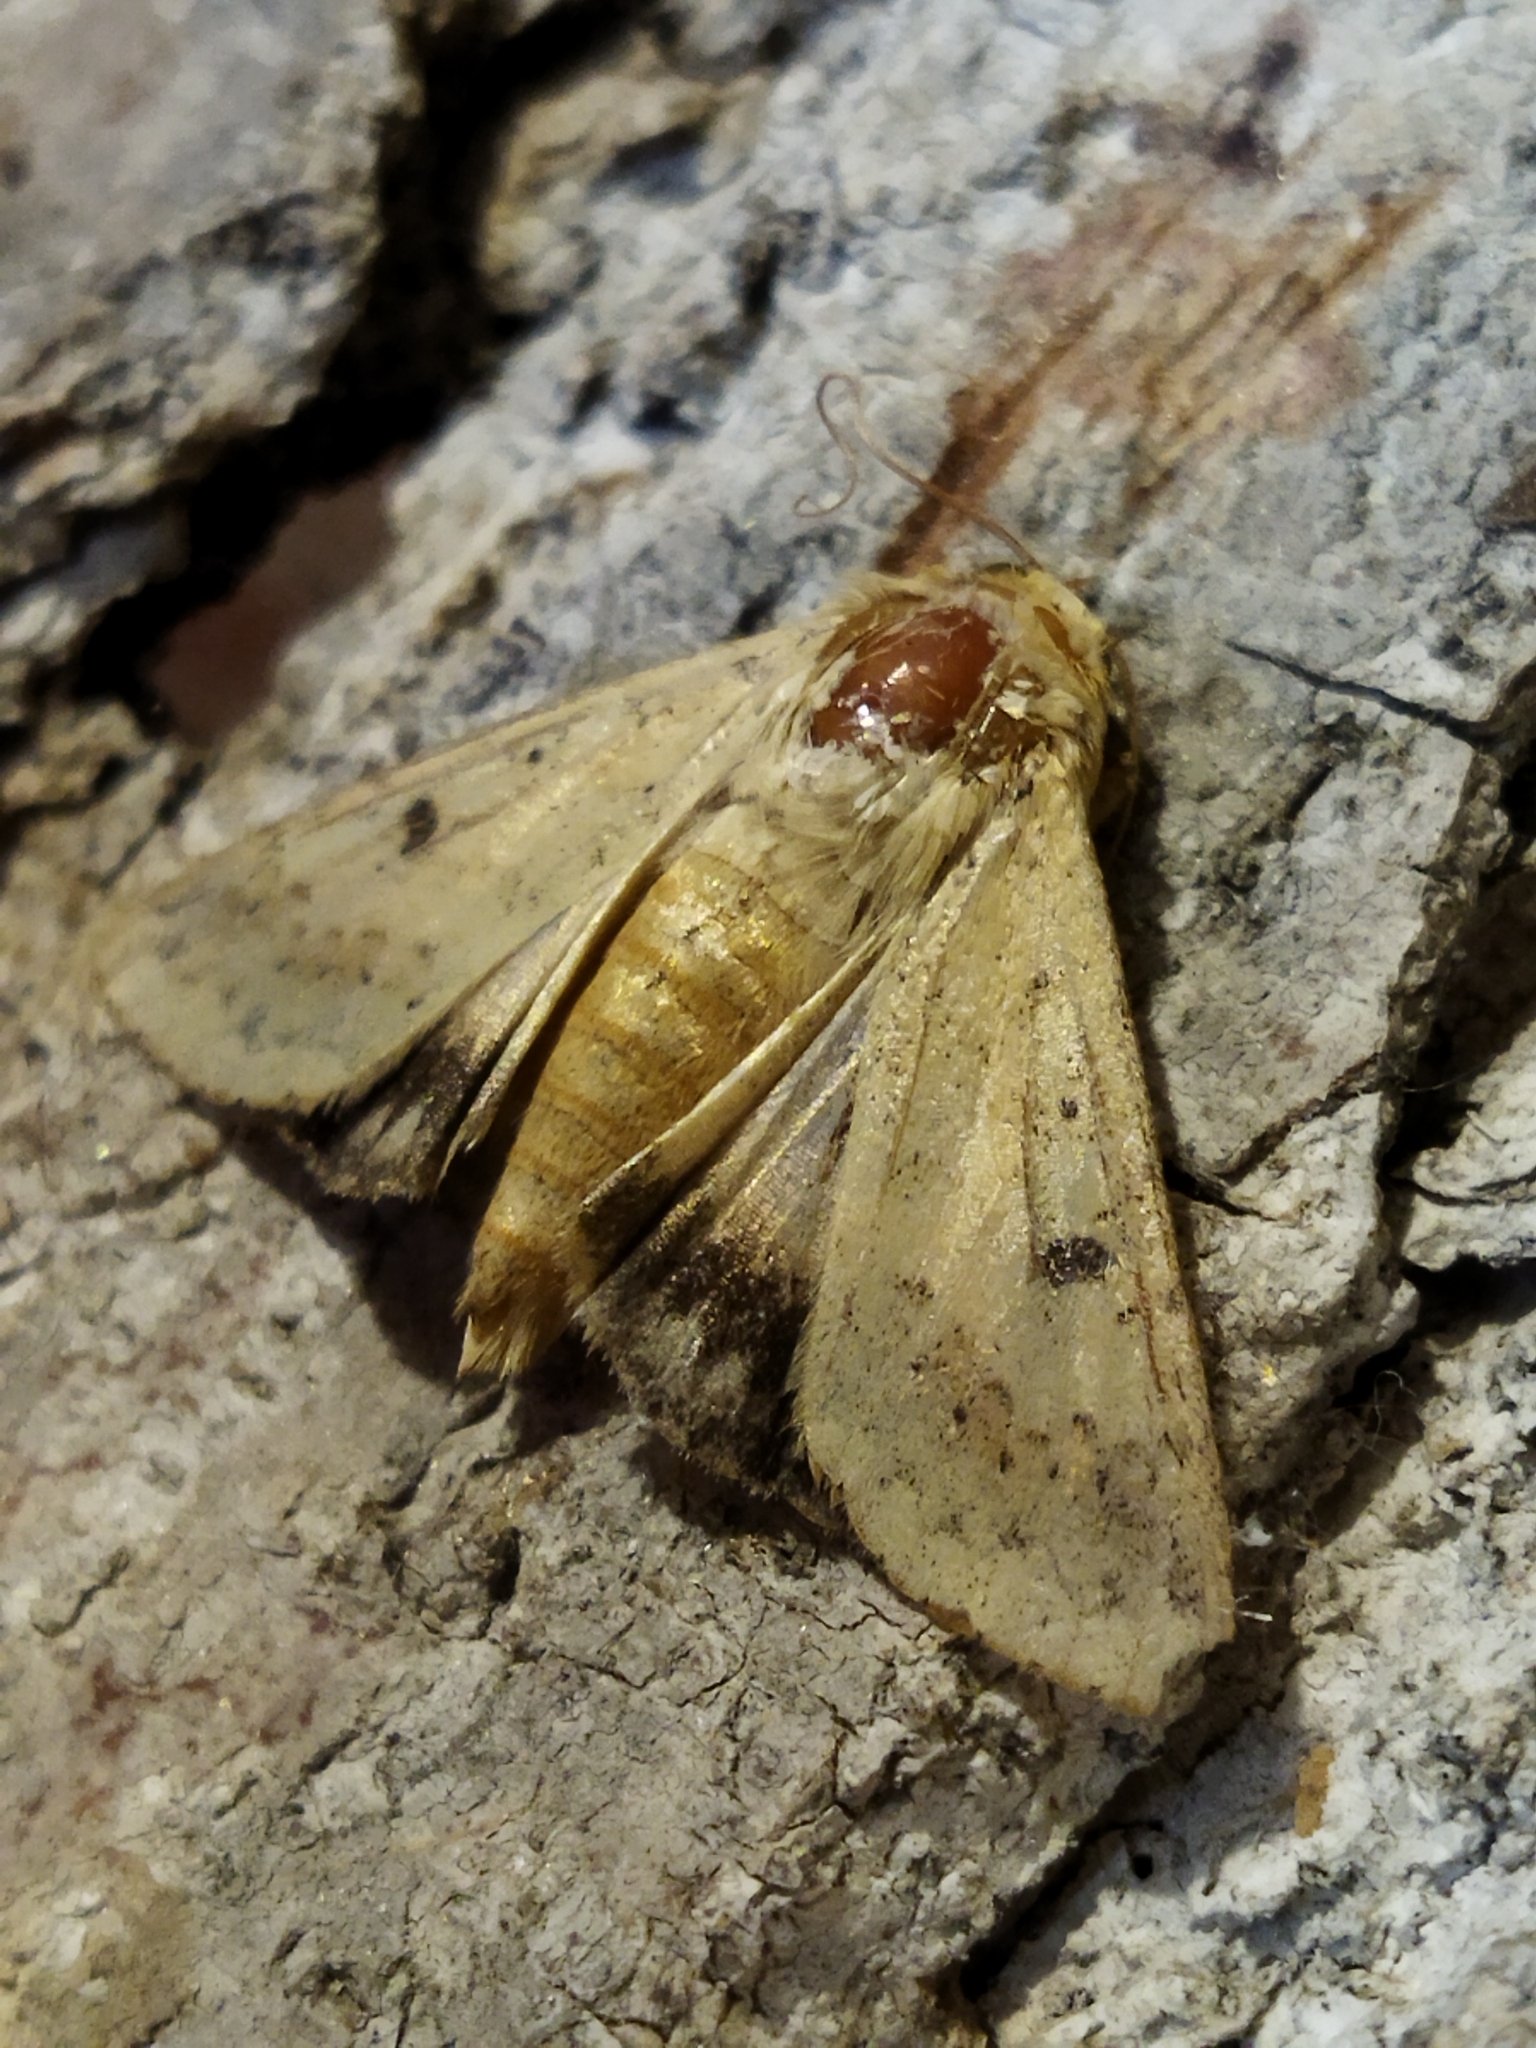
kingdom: Animalia
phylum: Arthropoda
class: Insecta
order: Lepidoptera
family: Noctuidae
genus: Helicoverpa
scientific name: Helicoverpa armigera
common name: Cotton bollworm
